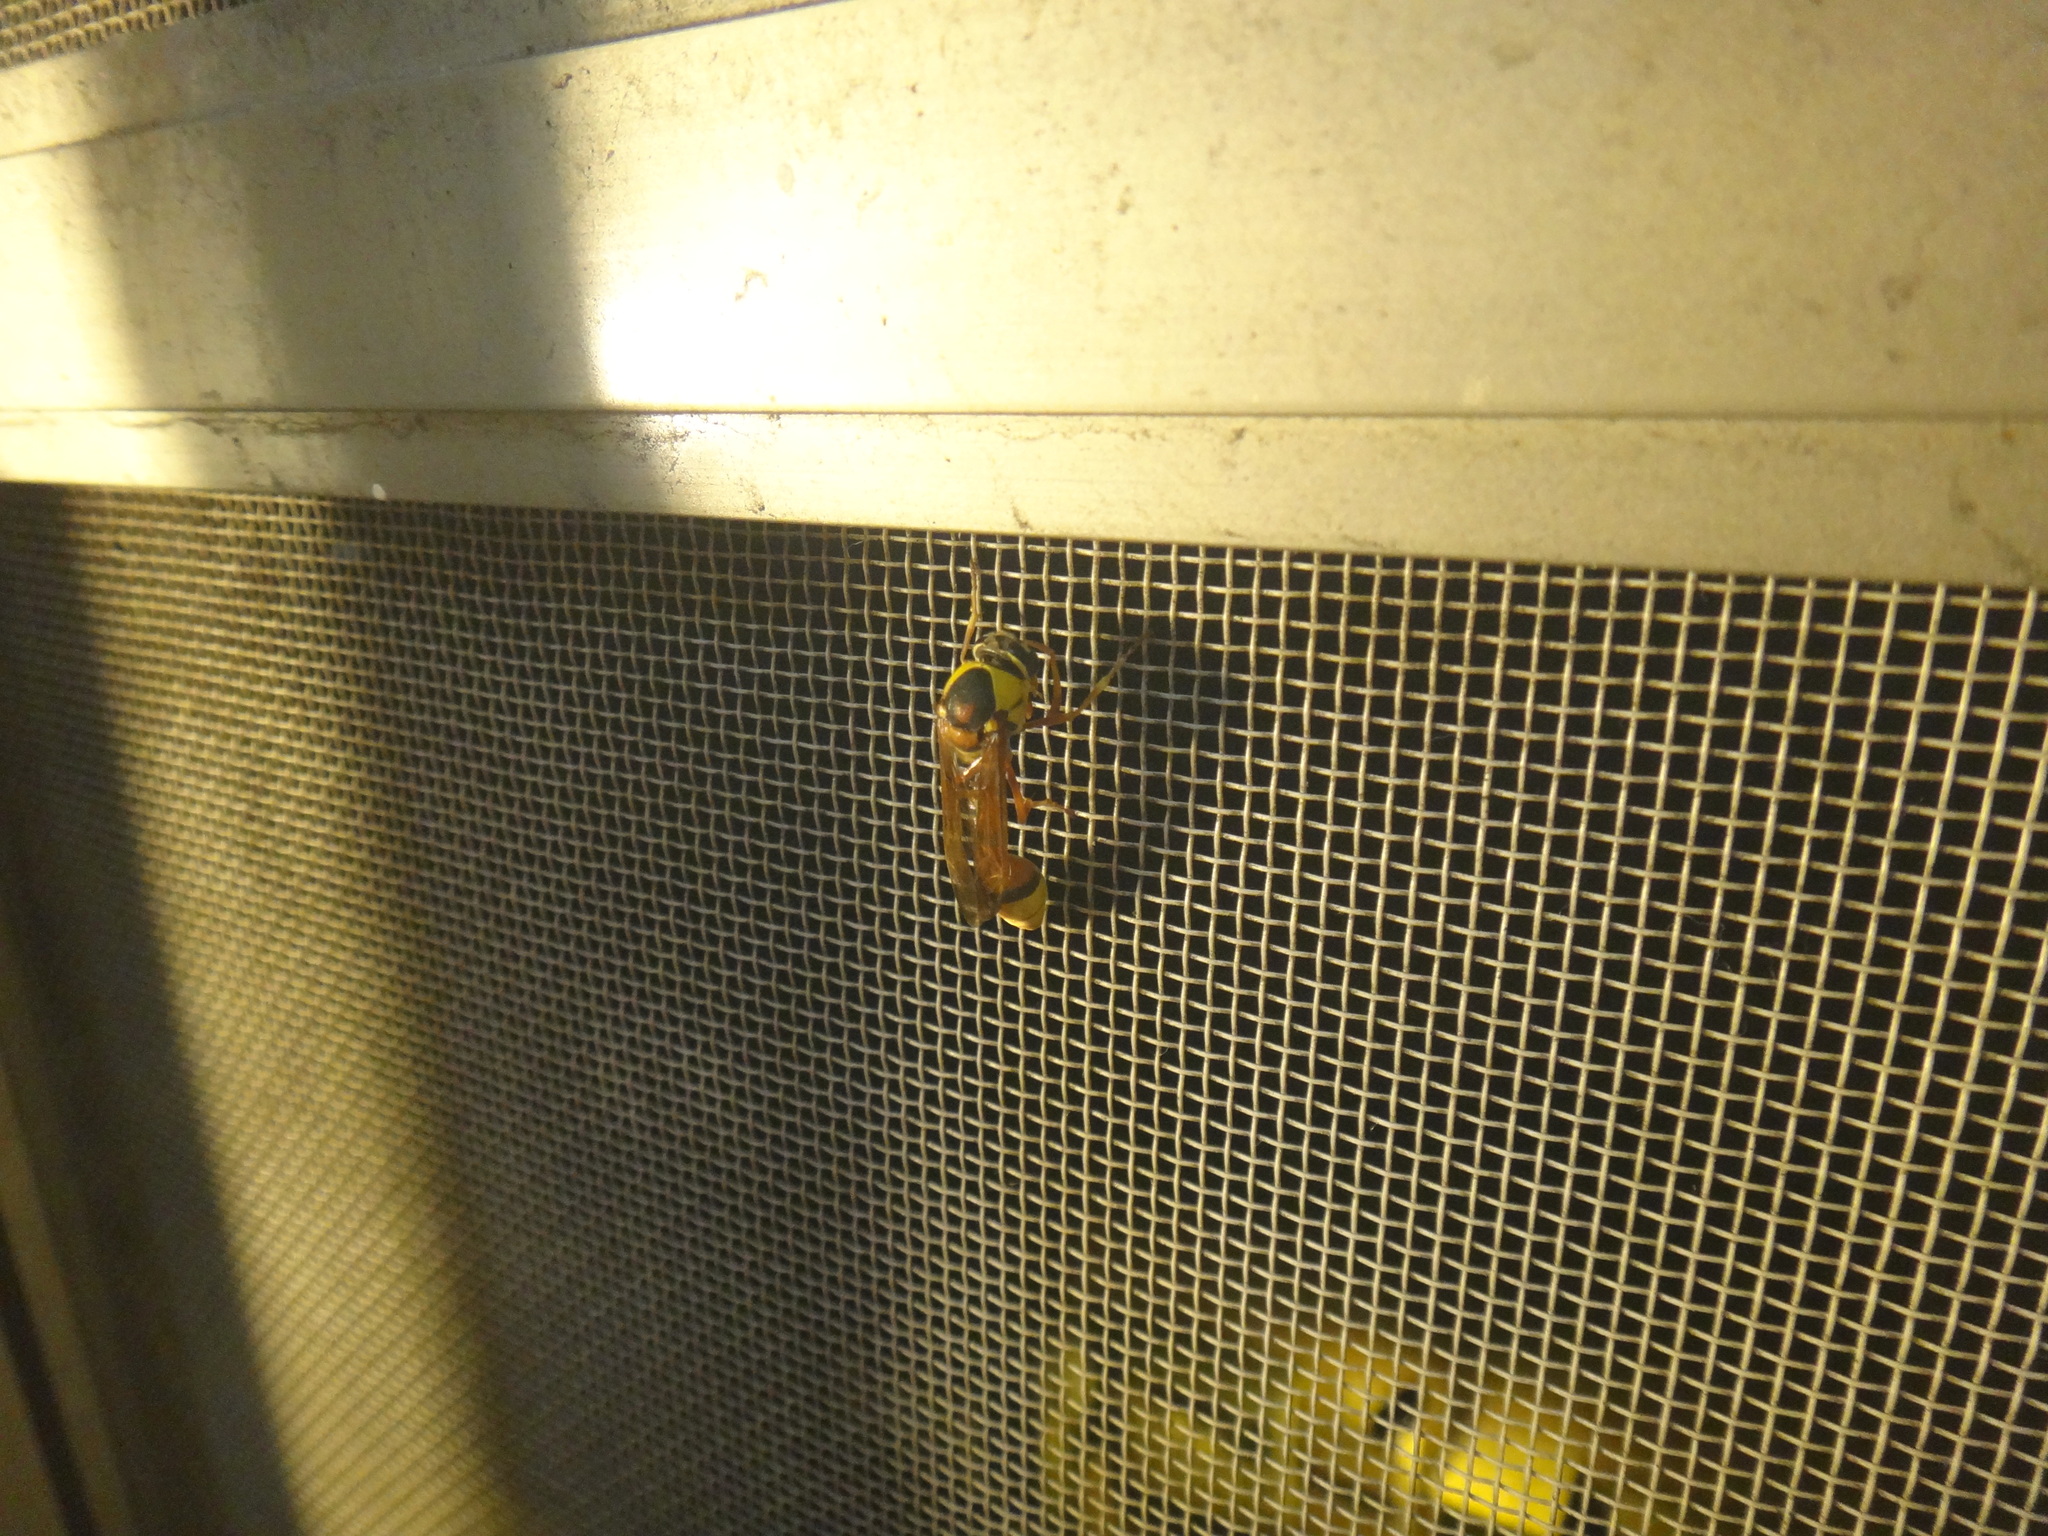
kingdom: Animalia
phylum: Arthropoda
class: Insecta
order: Hymenoptera
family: Eumenidae
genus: Delta
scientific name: Delta esuriens
